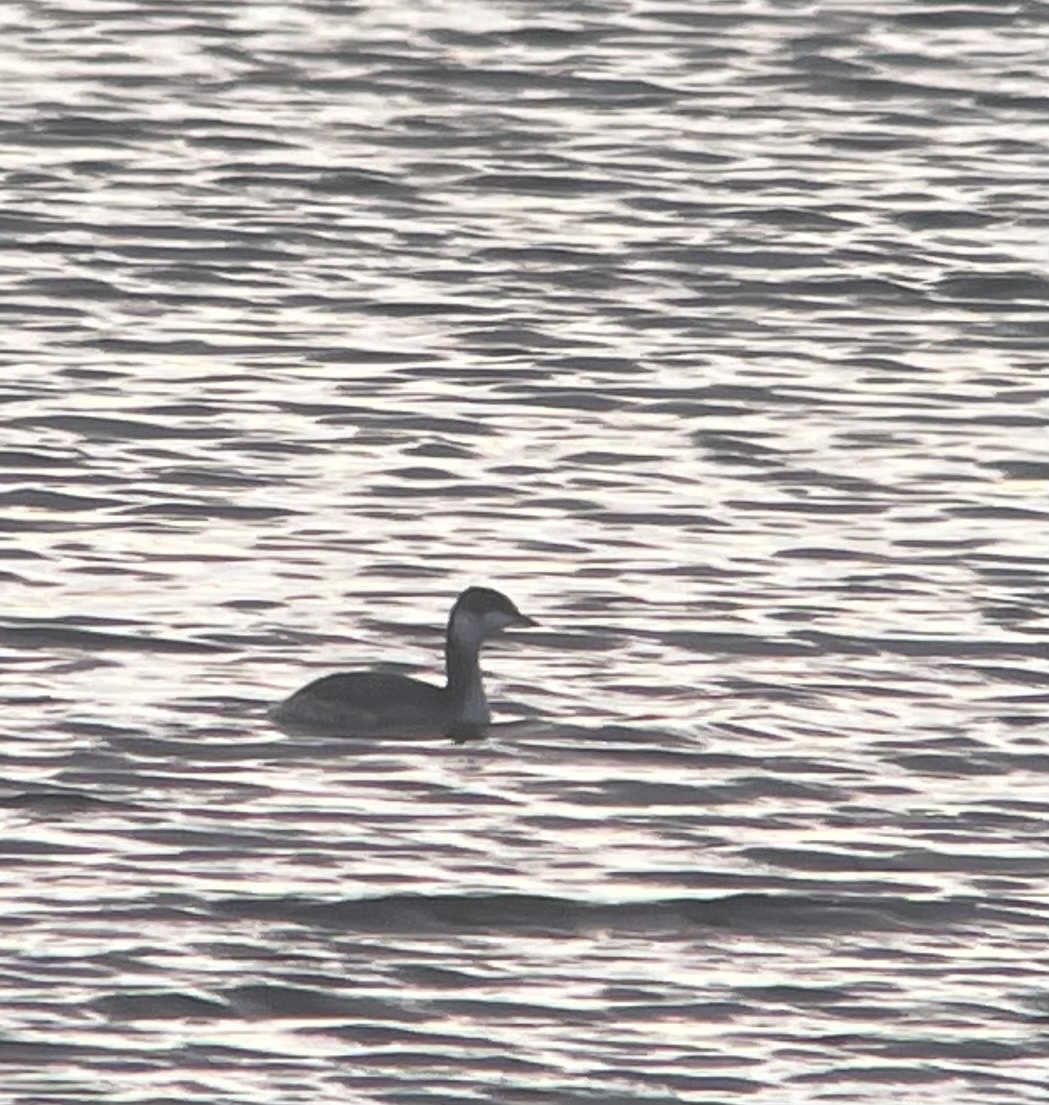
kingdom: Animalia
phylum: Chordata
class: Aves
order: Podicipediformes
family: Podicipedidae
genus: Podiceps
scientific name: Podiceps auritus
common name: Horned grebe
